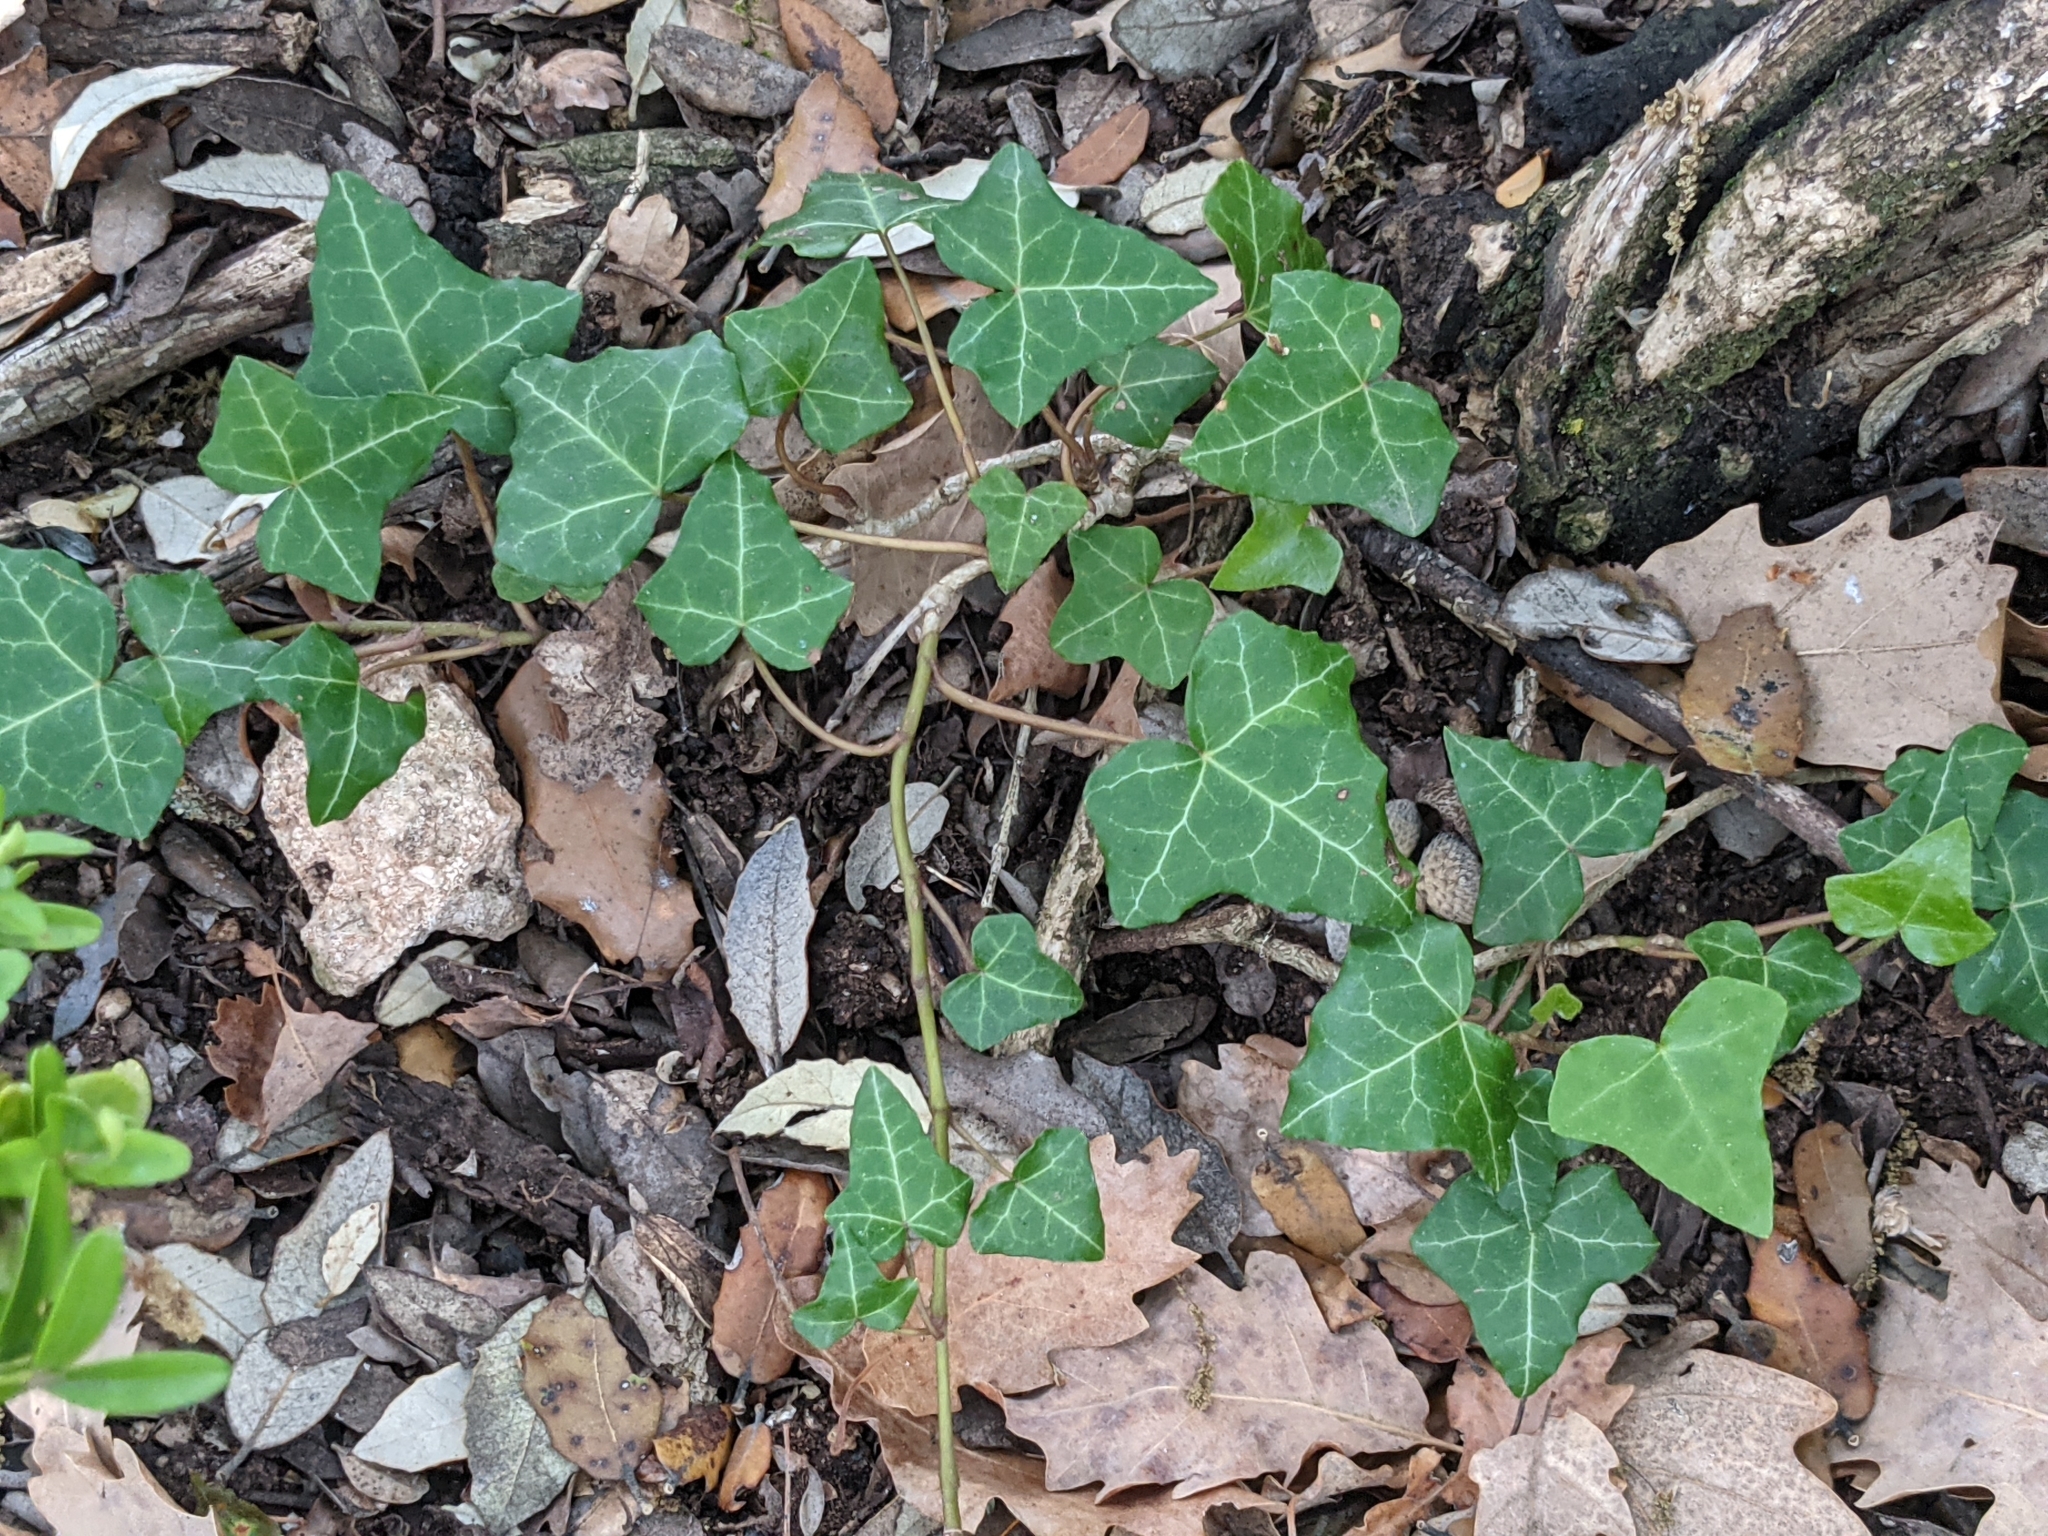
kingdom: Plantae
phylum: Tracheophyta
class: Magnoliopsida
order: Apiales
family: Araliaceae
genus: Hedera
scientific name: Hedera helix
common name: Ivy
